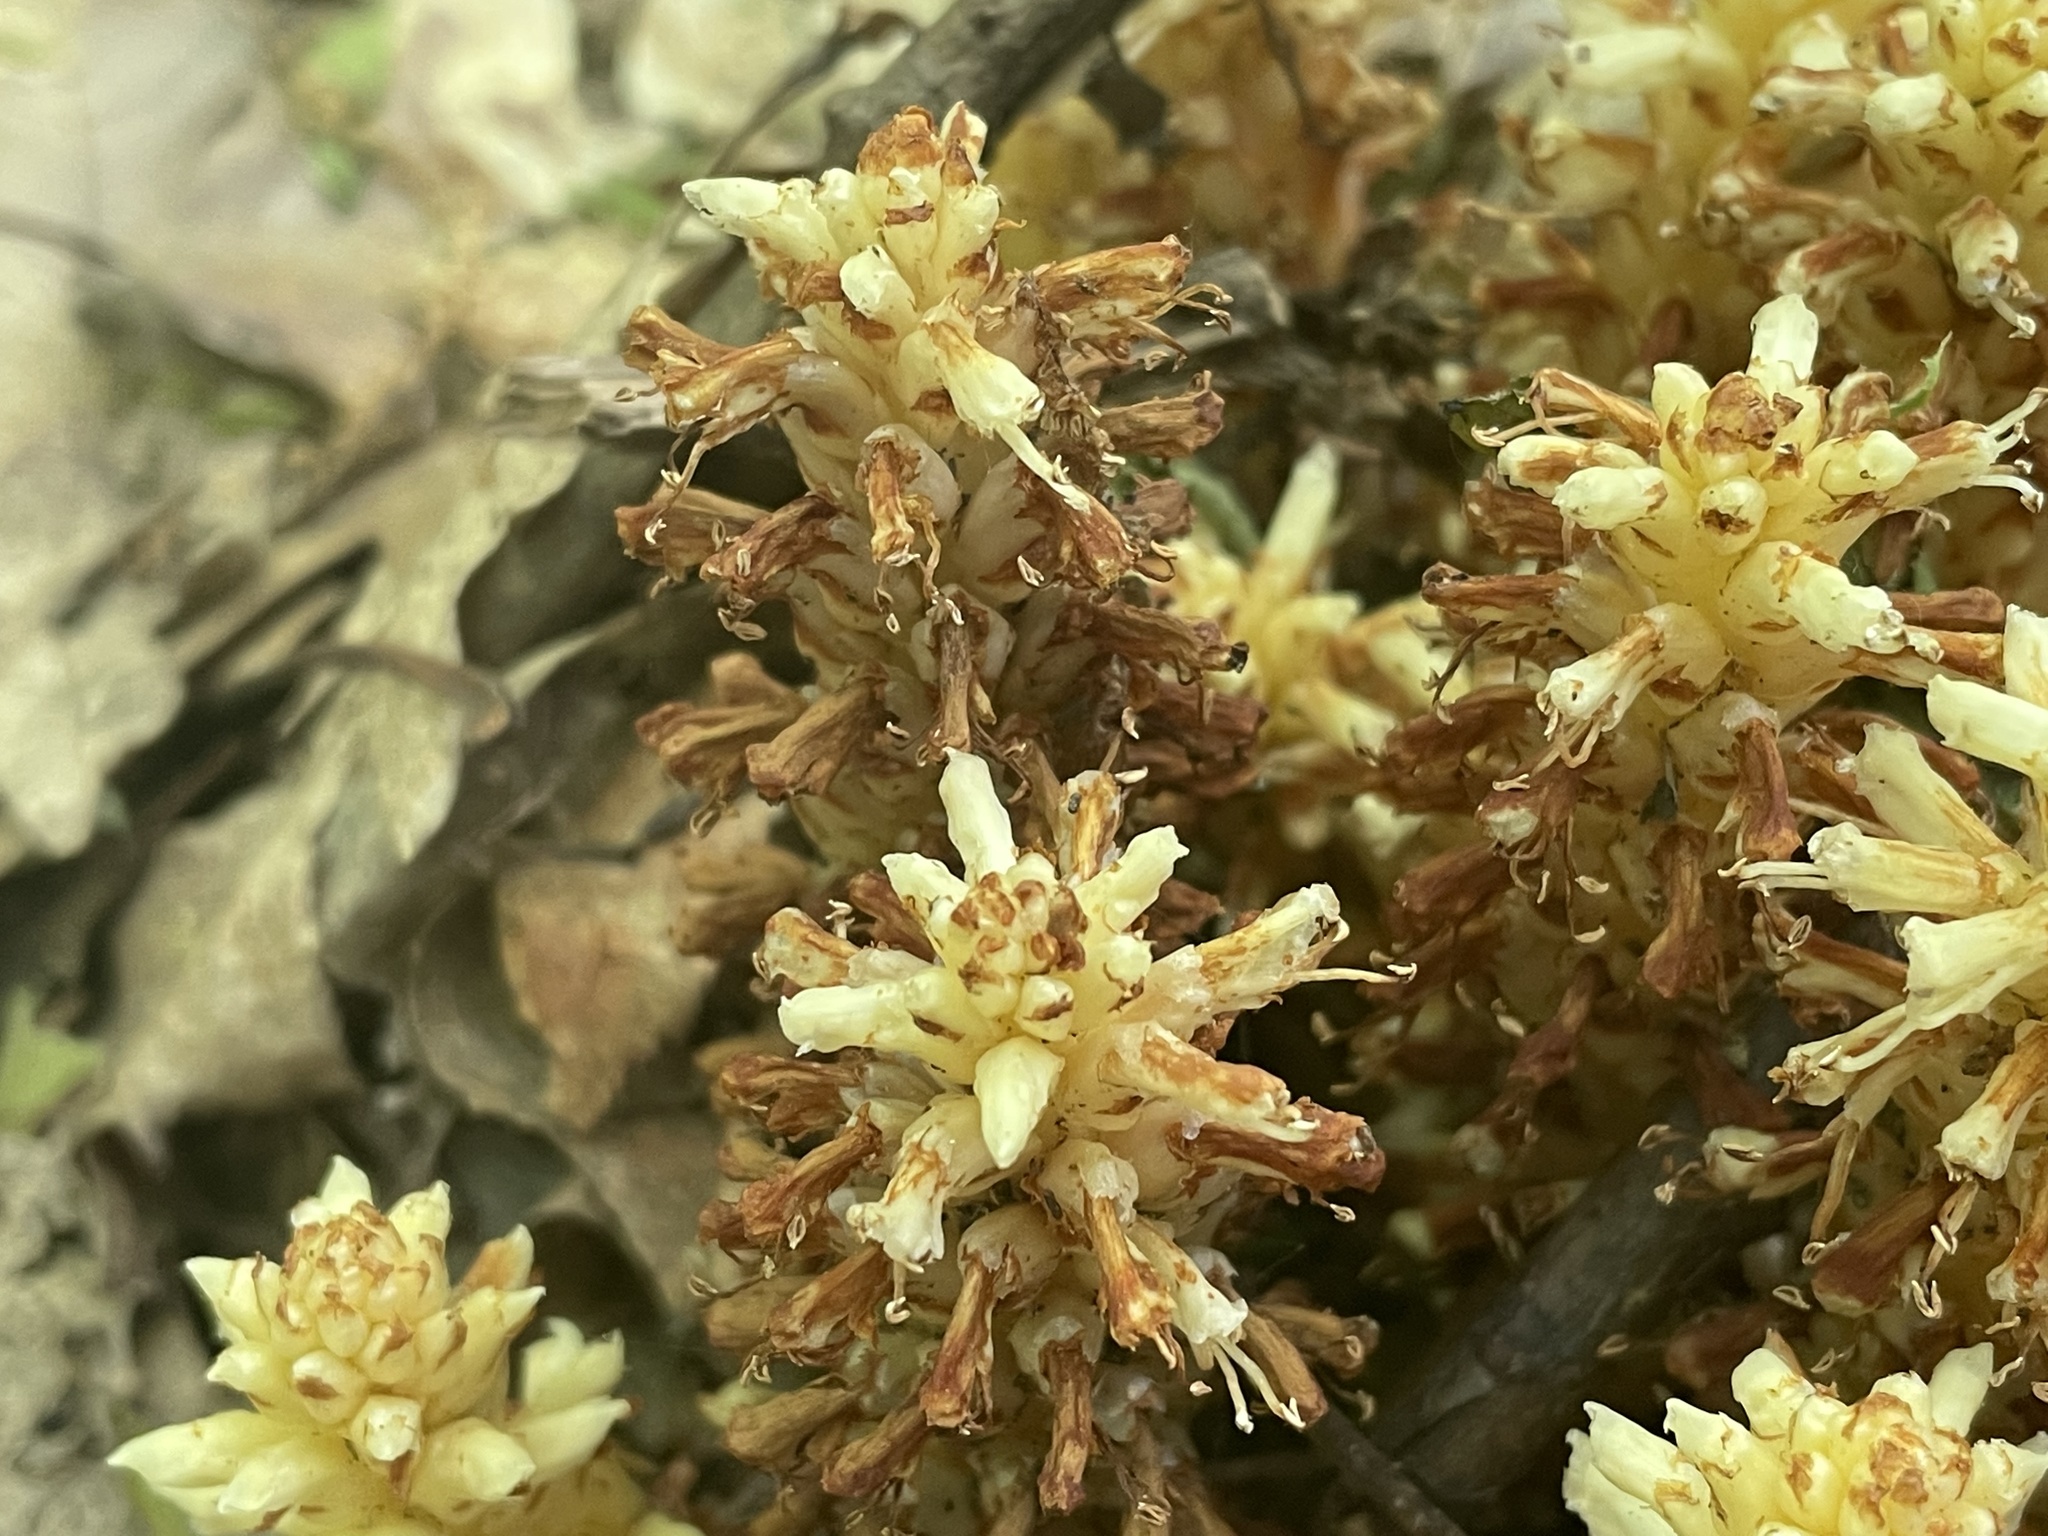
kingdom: Plantae
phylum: Tracheophyta
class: Magnoliopsida
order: Lamiales
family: Orobanchaceae
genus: Conopholis
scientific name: Conopholis americana
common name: American cancer-root
